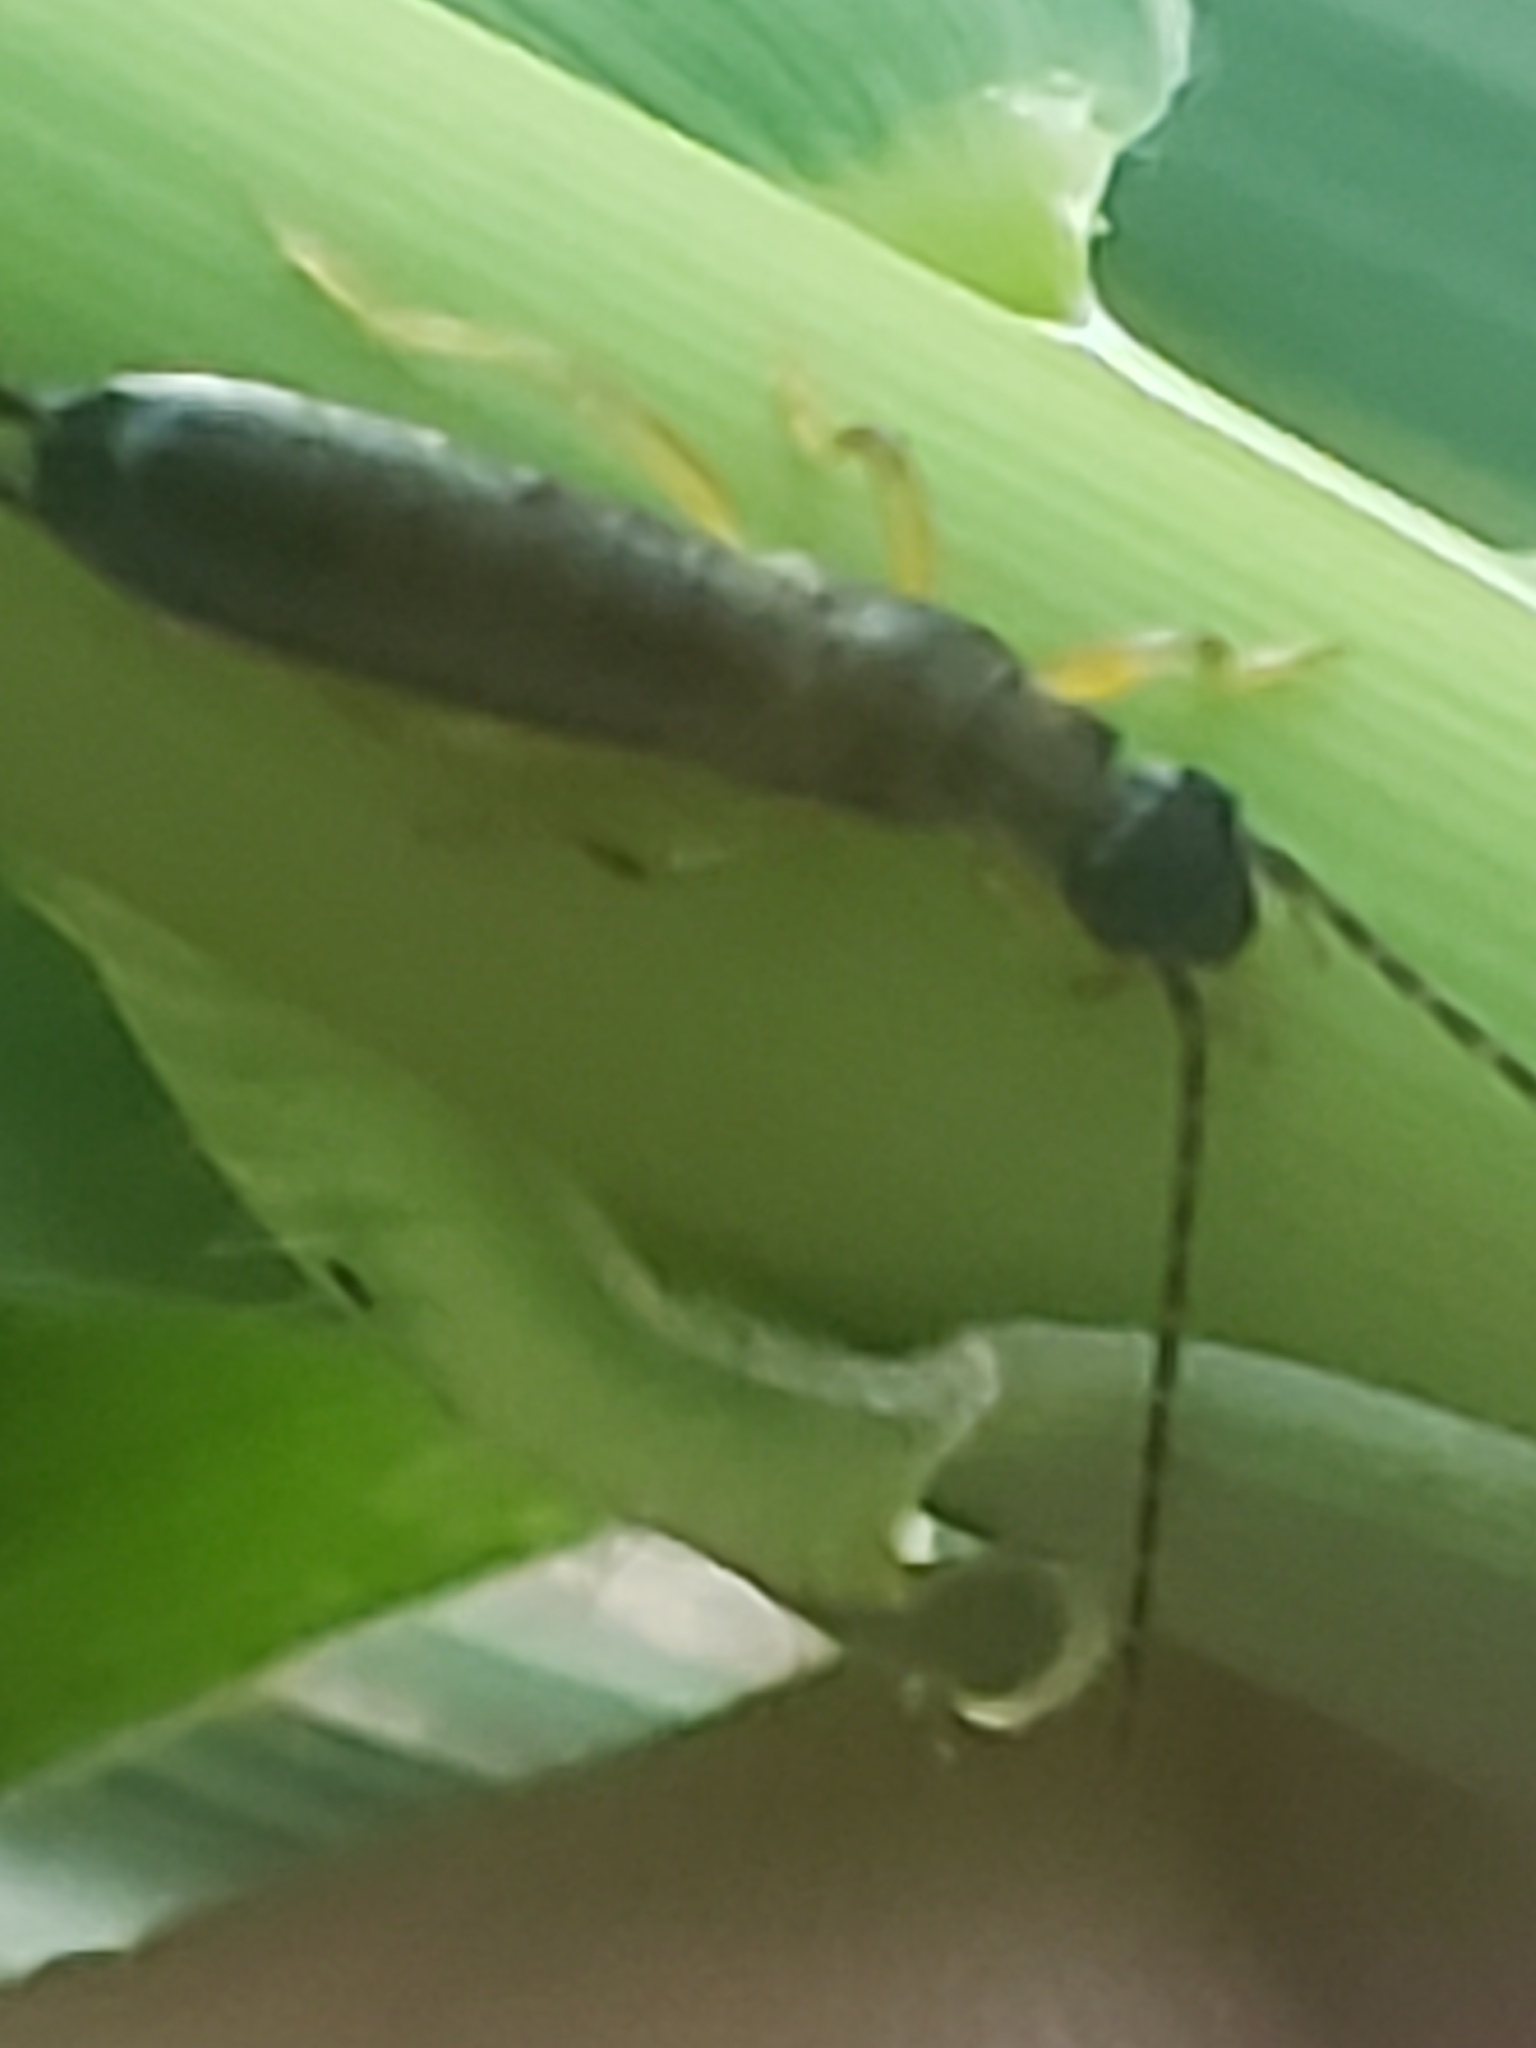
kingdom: Animalia
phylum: Arthropoda
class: Insecta
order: Dermaptera
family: Forficulidae
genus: Doru
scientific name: Doru aculeatum
